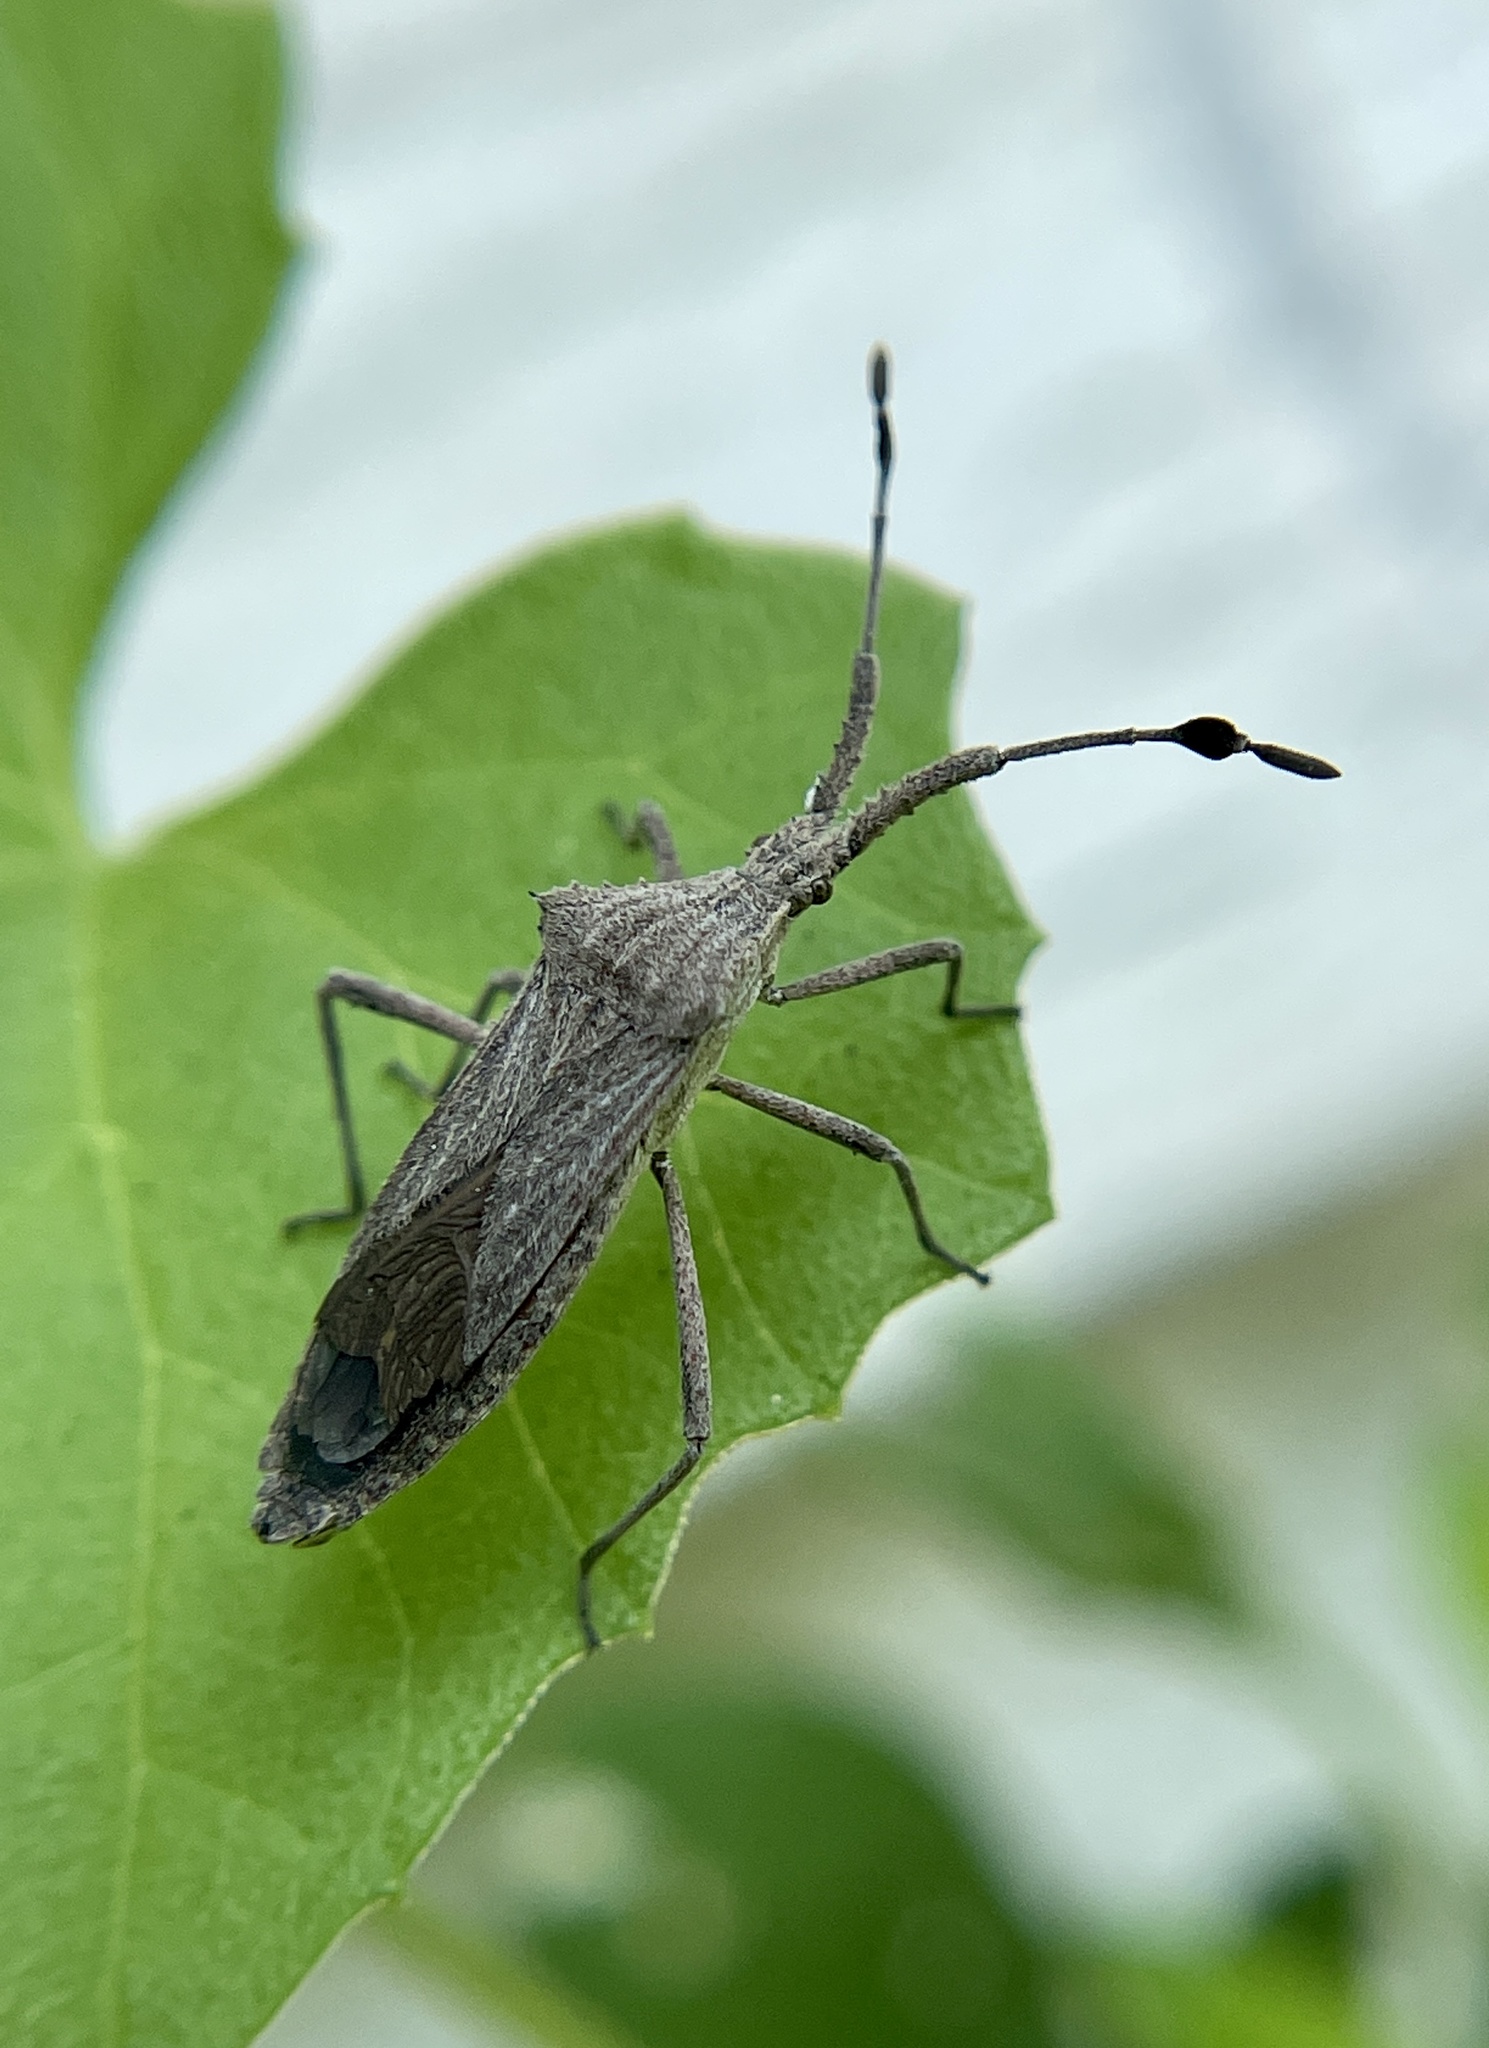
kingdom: Animalia
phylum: Arthropoda
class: Insecta
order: Hemiptera
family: Coreidae
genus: Chariesterus
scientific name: Chariesterus antennator
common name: Flat horned coreid
